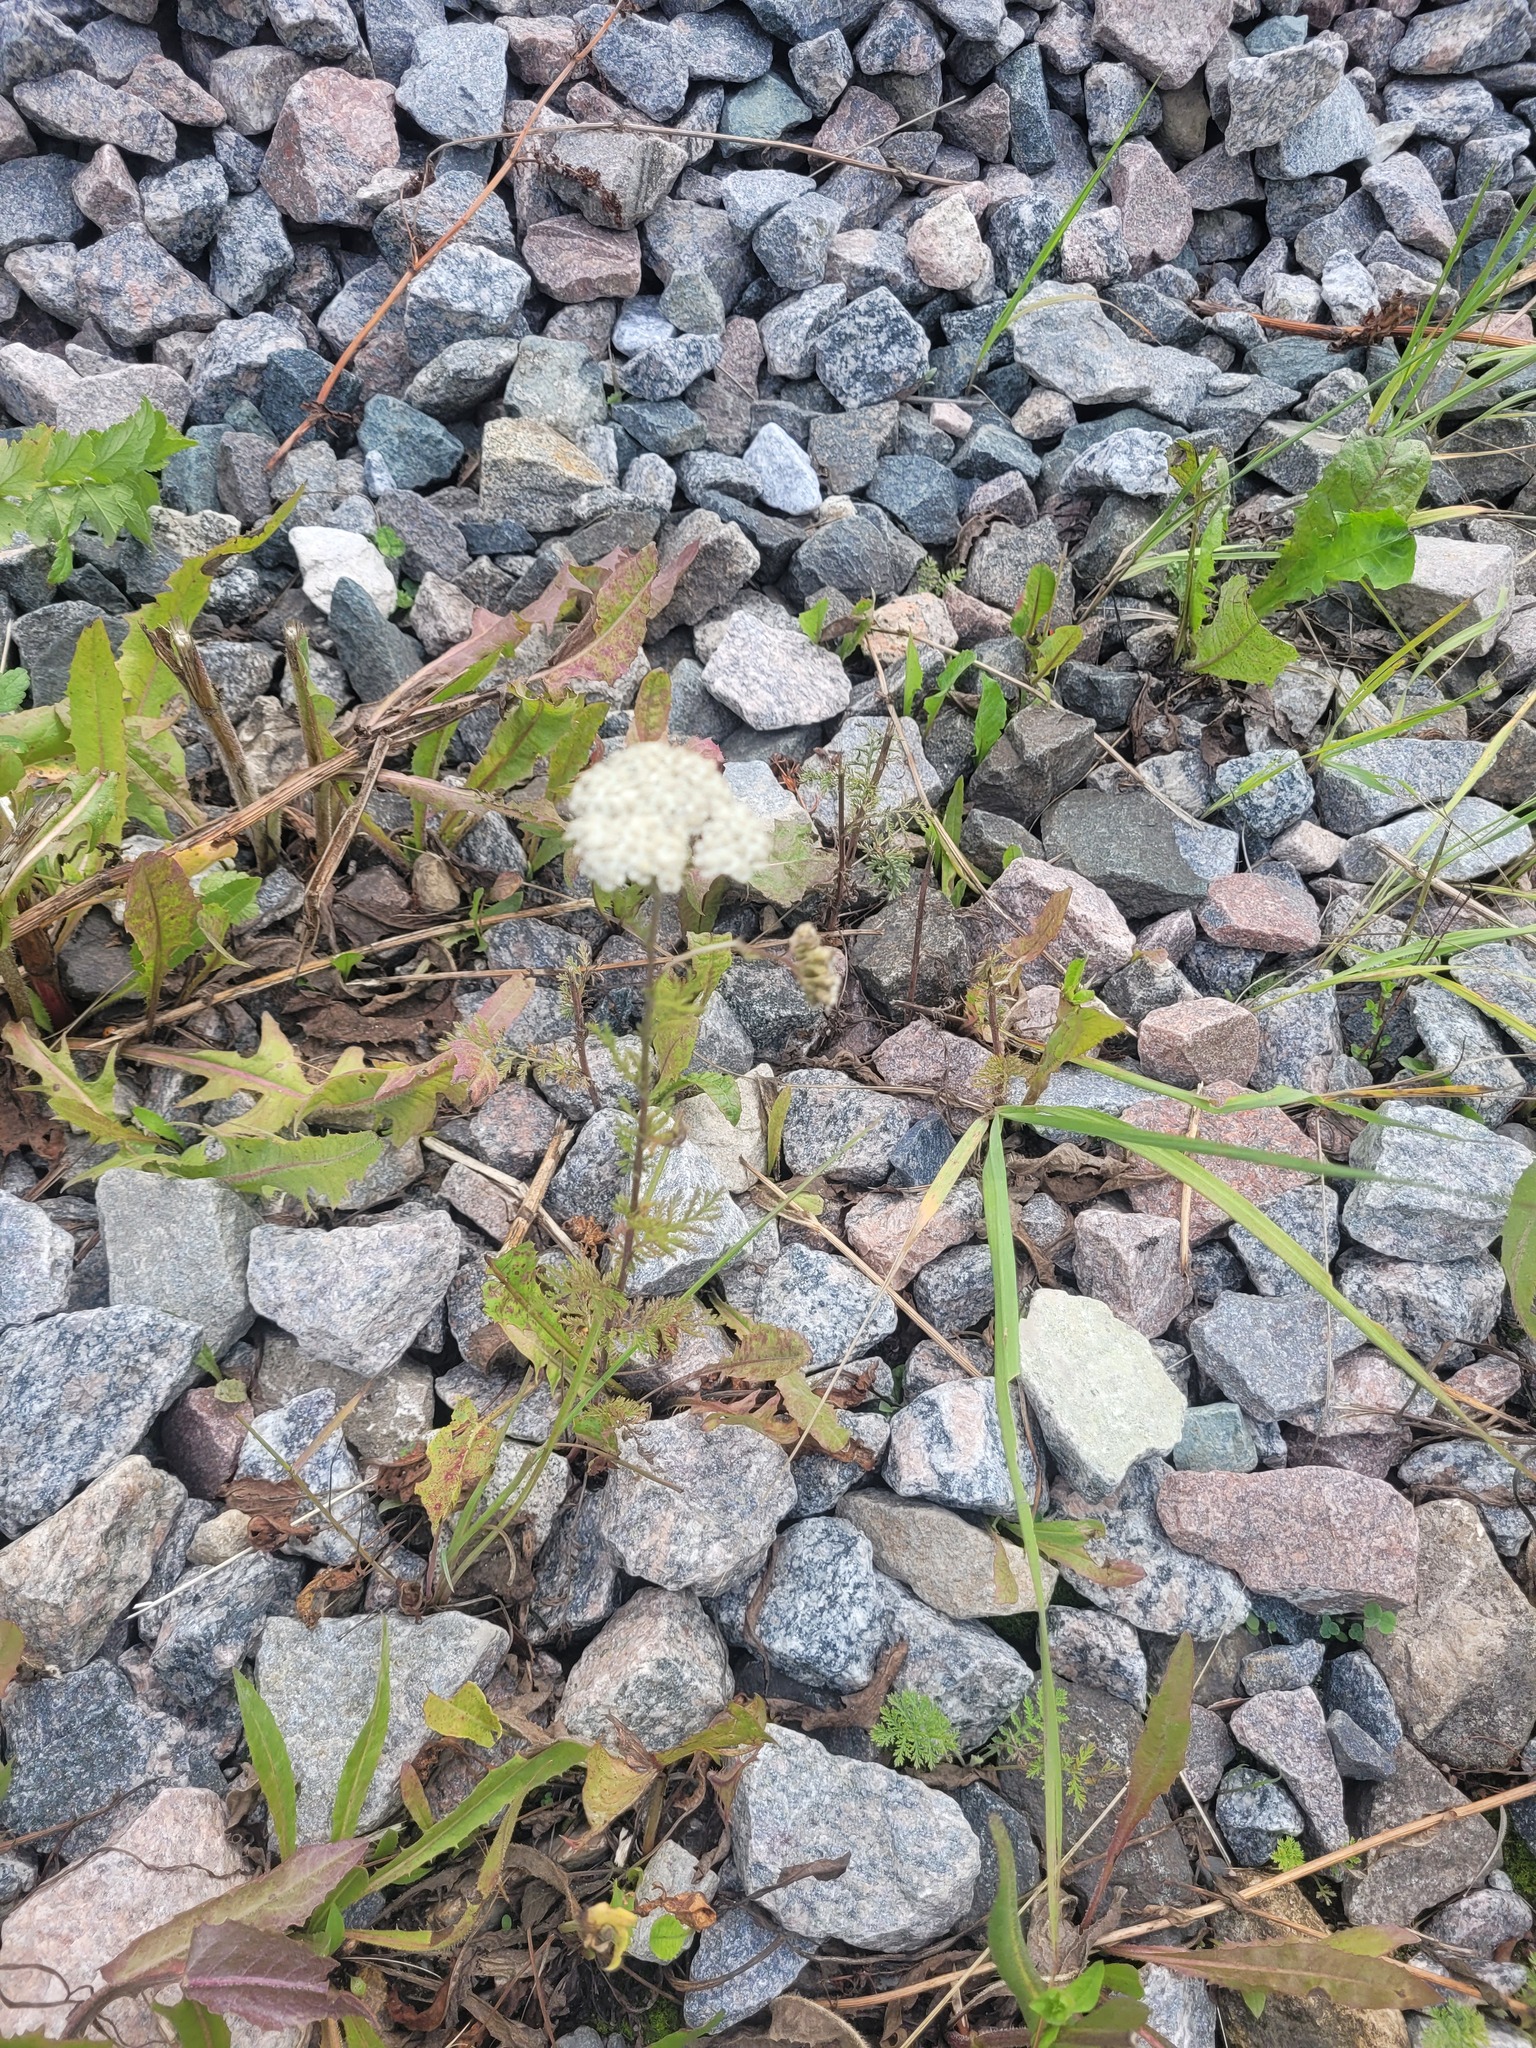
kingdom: Plantae
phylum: Tracheophyta
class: Magnoliopsida
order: Asterales
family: Asteraceae
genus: Achillea
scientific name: Achillea nobilis
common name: Noble yarrow
